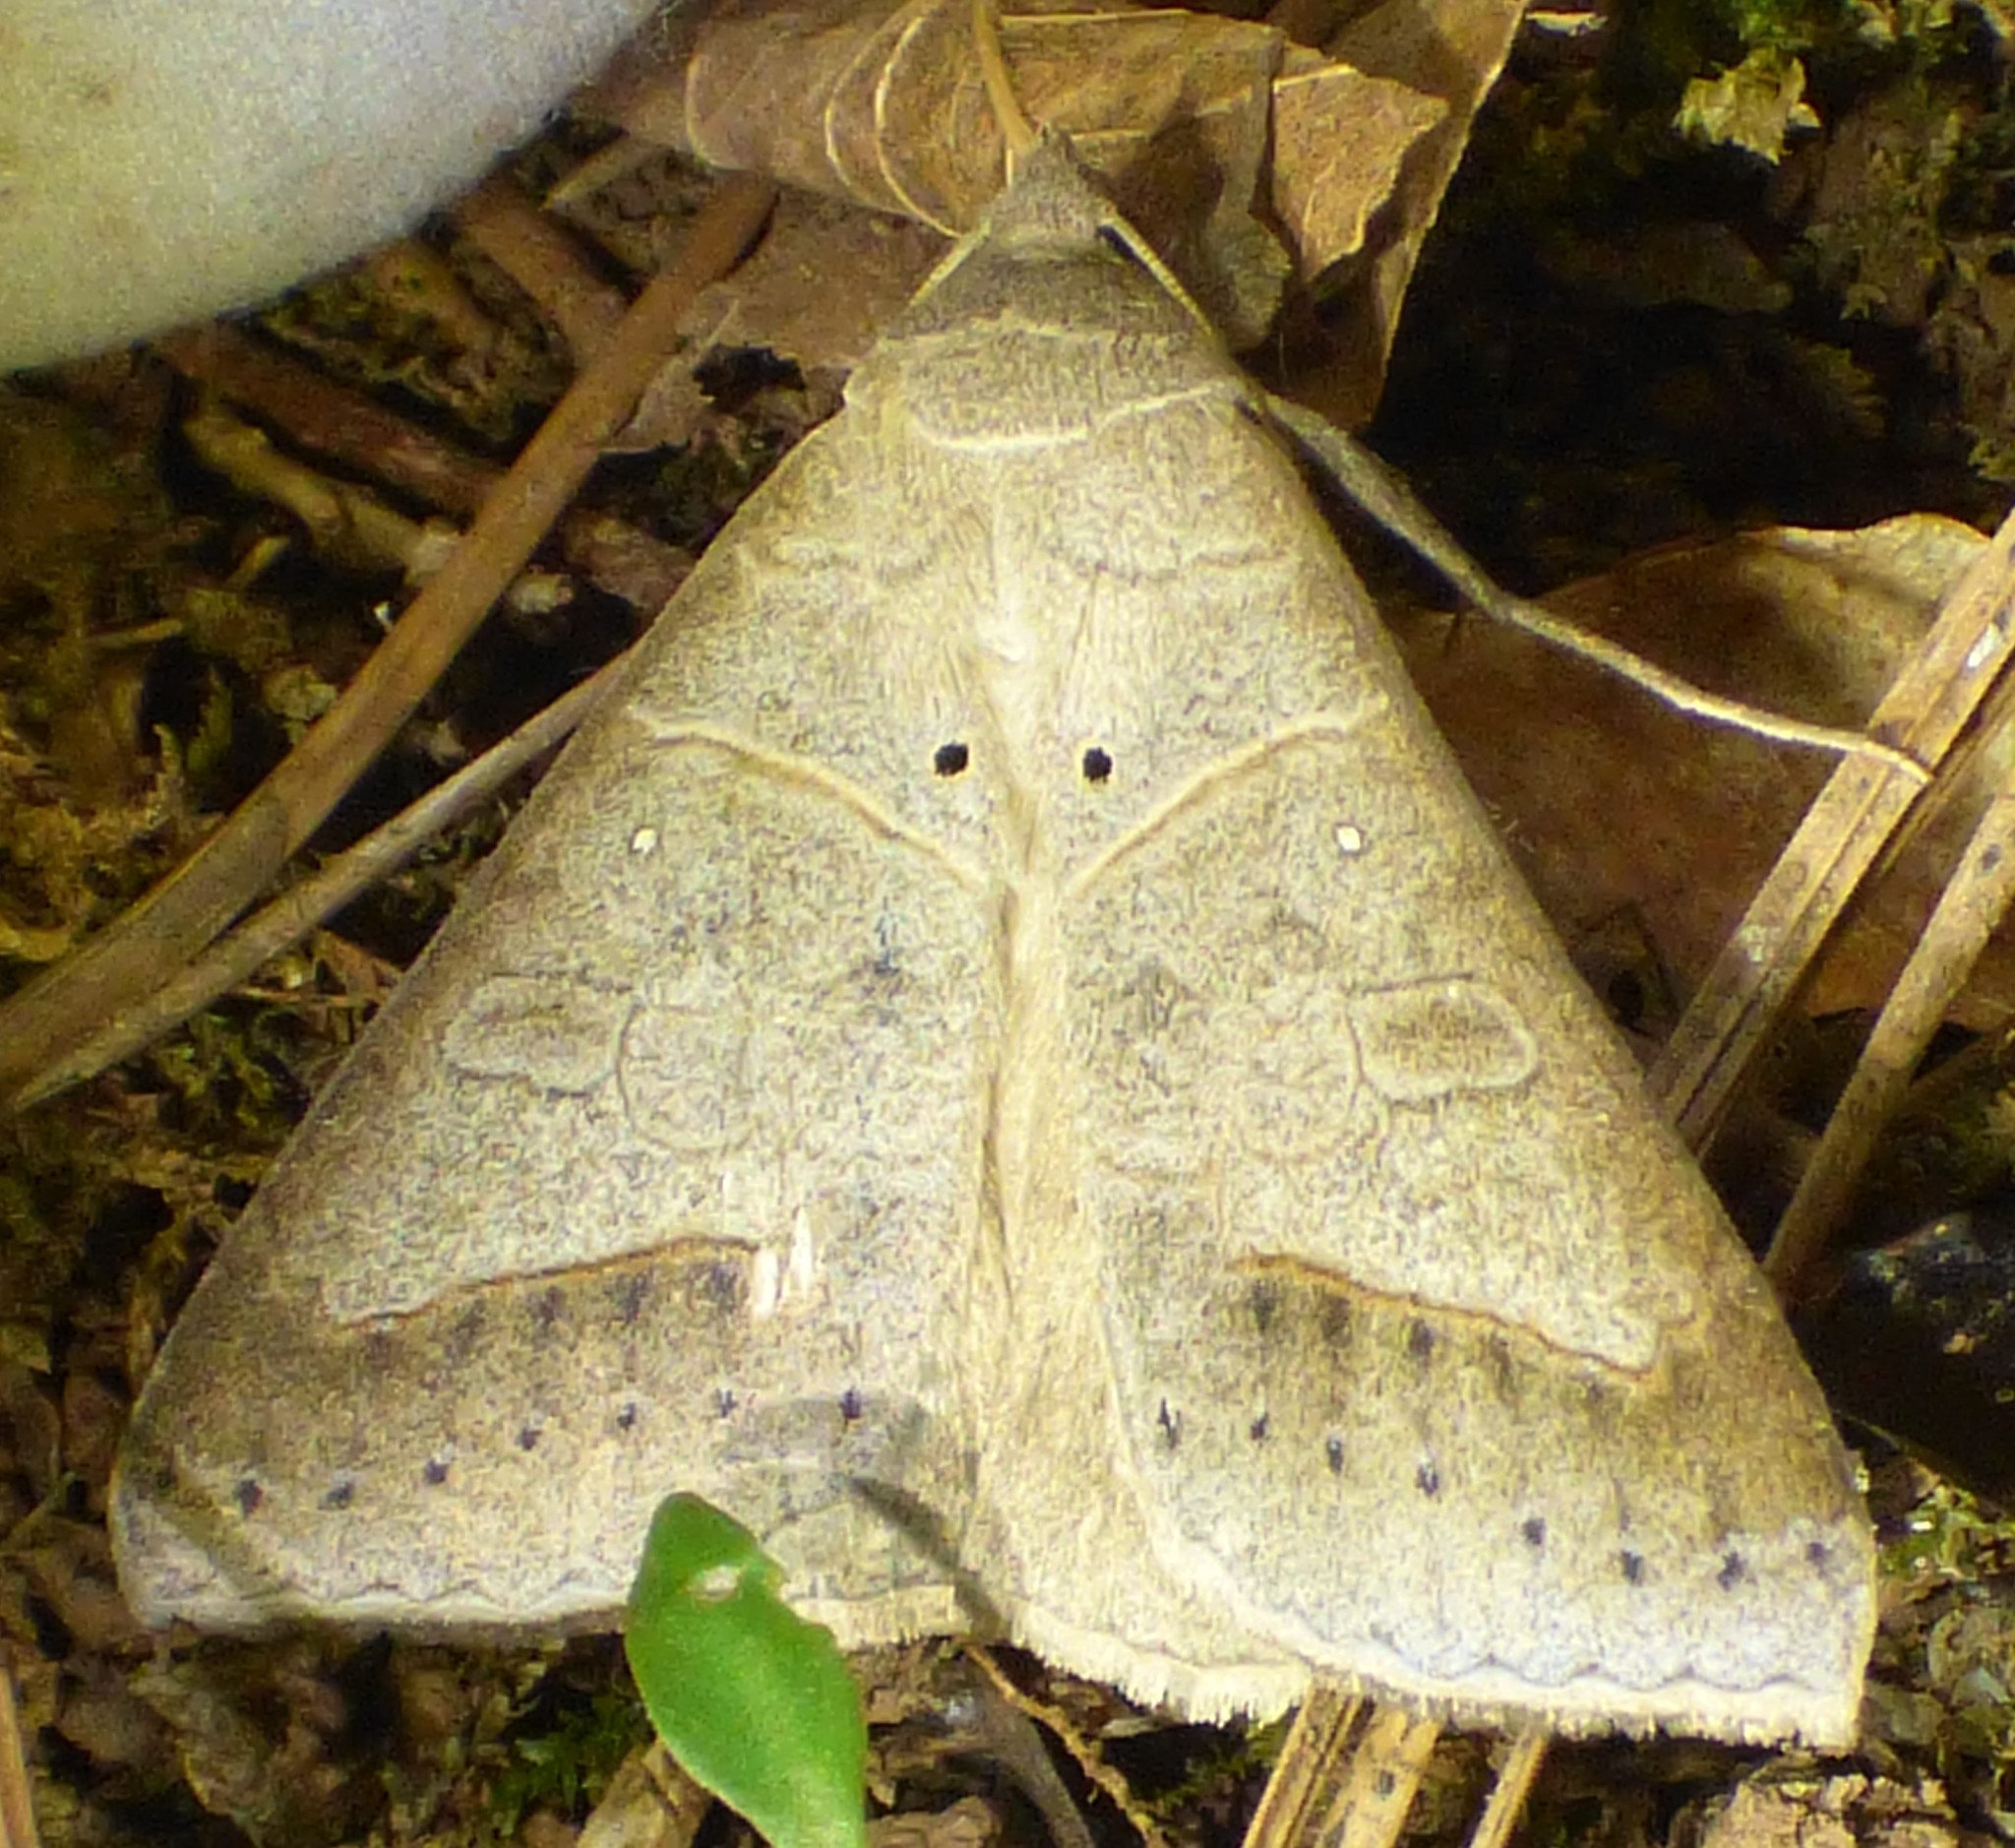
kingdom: Animalia
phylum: Arthropoda
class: Insecta
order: Lepidoptera
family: Erebidae
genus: Mocis
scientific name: Mocis marcida
